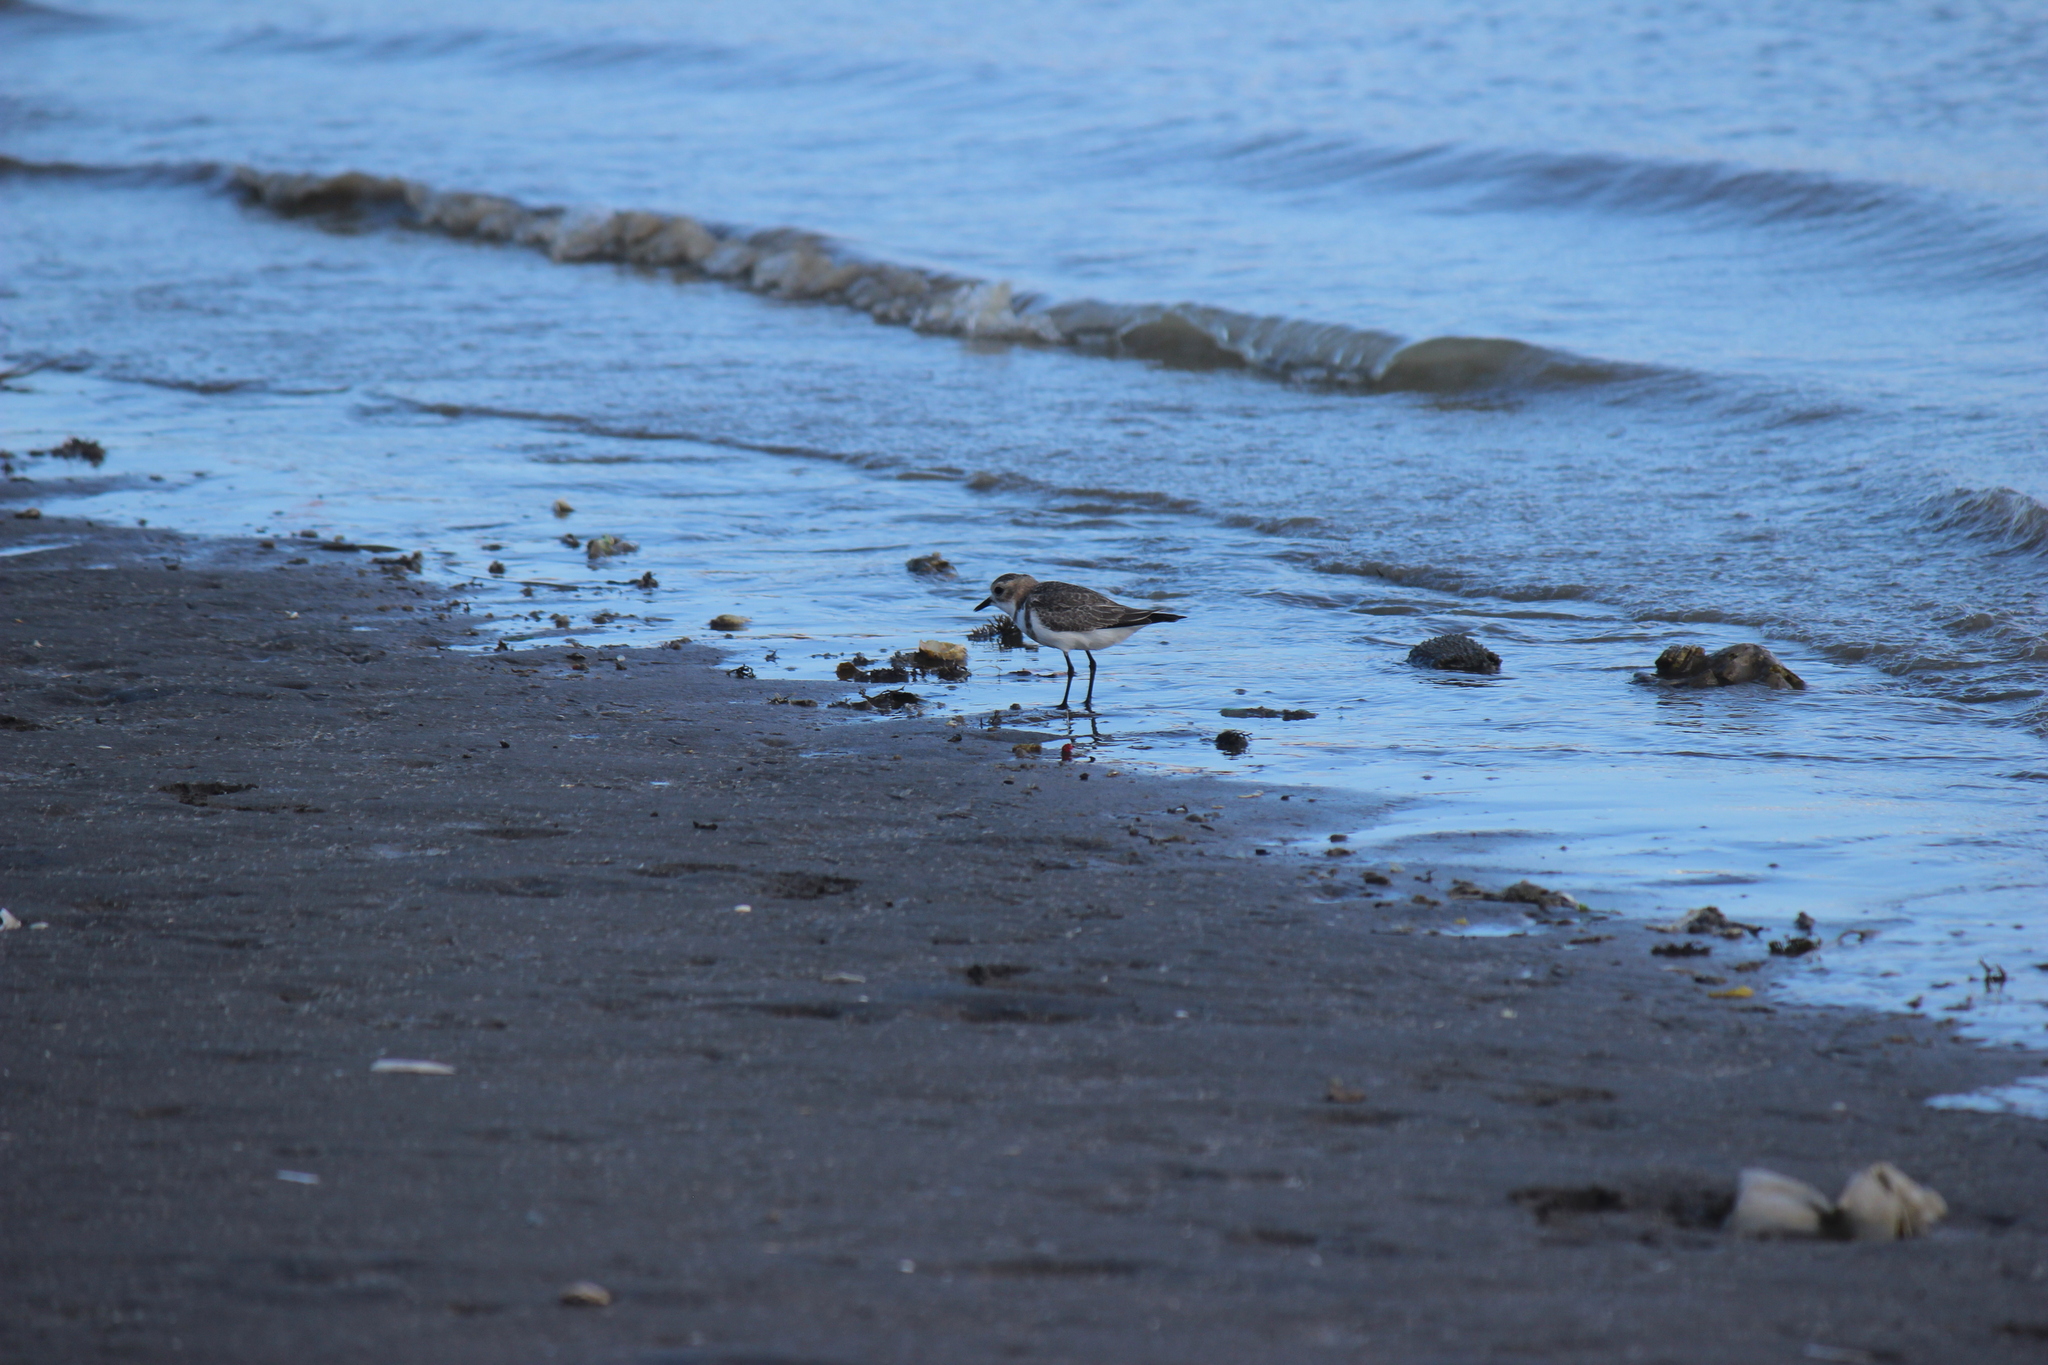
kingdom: Animalia
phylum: Chordata
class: Aves
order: Charadriiformes
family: Charadriidae
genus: Anarhynchus
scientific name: Anarhynchus
